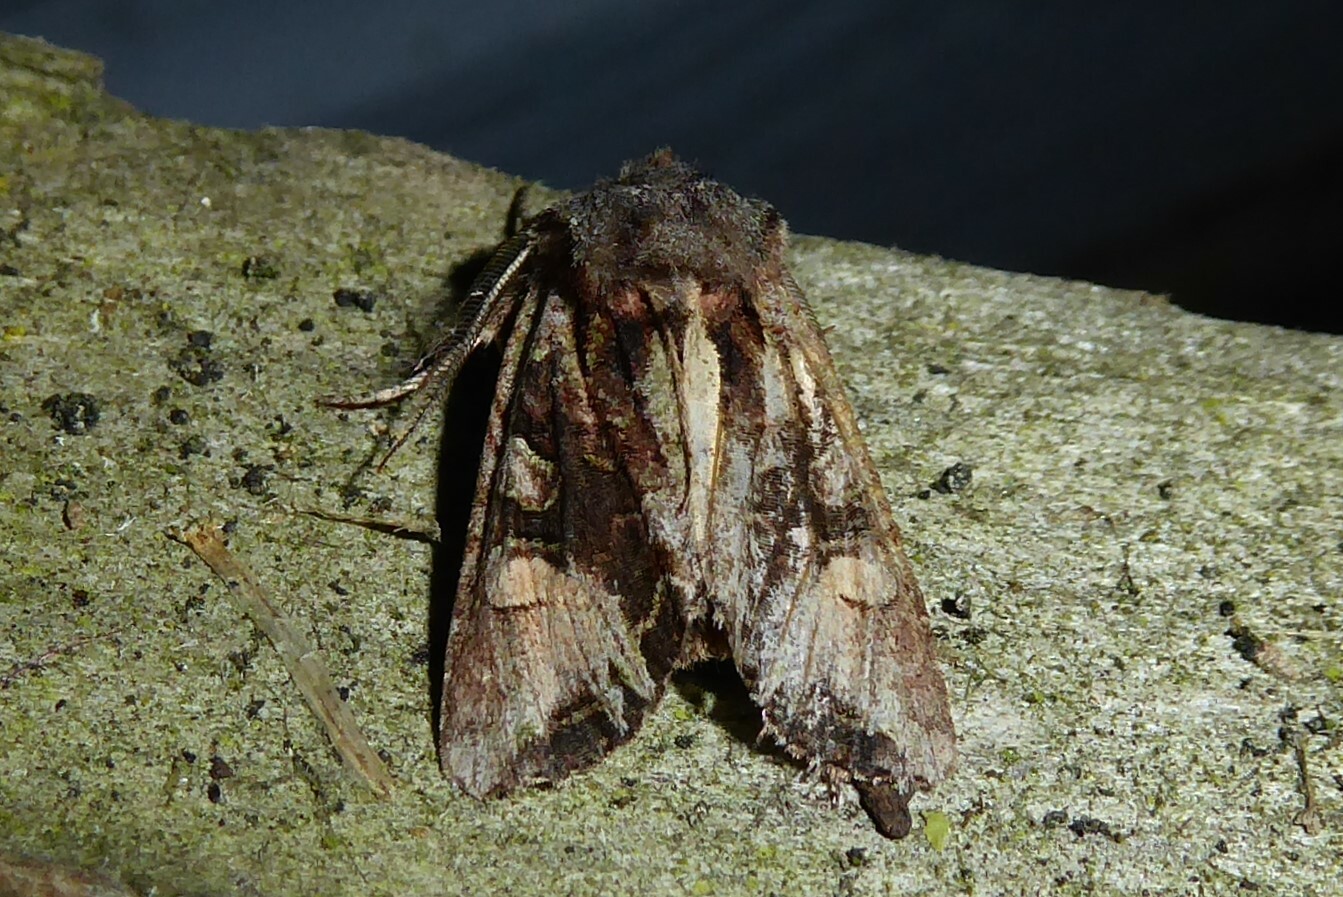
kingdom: Animalia
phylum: Arthropoda
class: Insecta
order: Lepidoptera
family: Noctuidae
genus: Ichneutica
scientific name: Ichneutica
